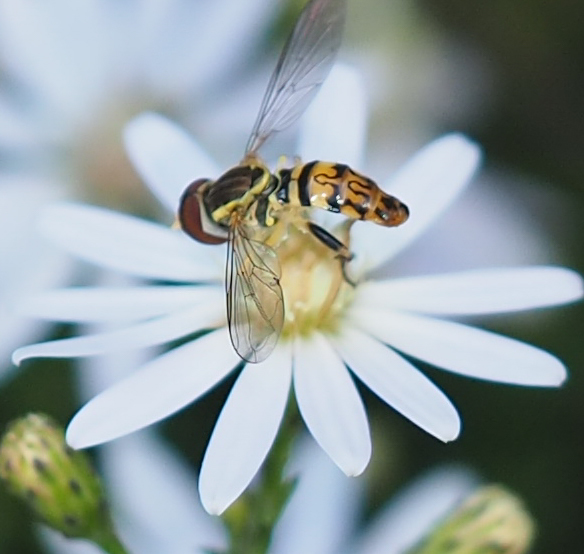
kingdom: Animalia
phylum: Arthropoda
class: Insecta
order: Diptera
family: Syrphidae
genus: Toxomerus
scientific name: Toxomerus geminatus
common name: Eastern calligrapher
